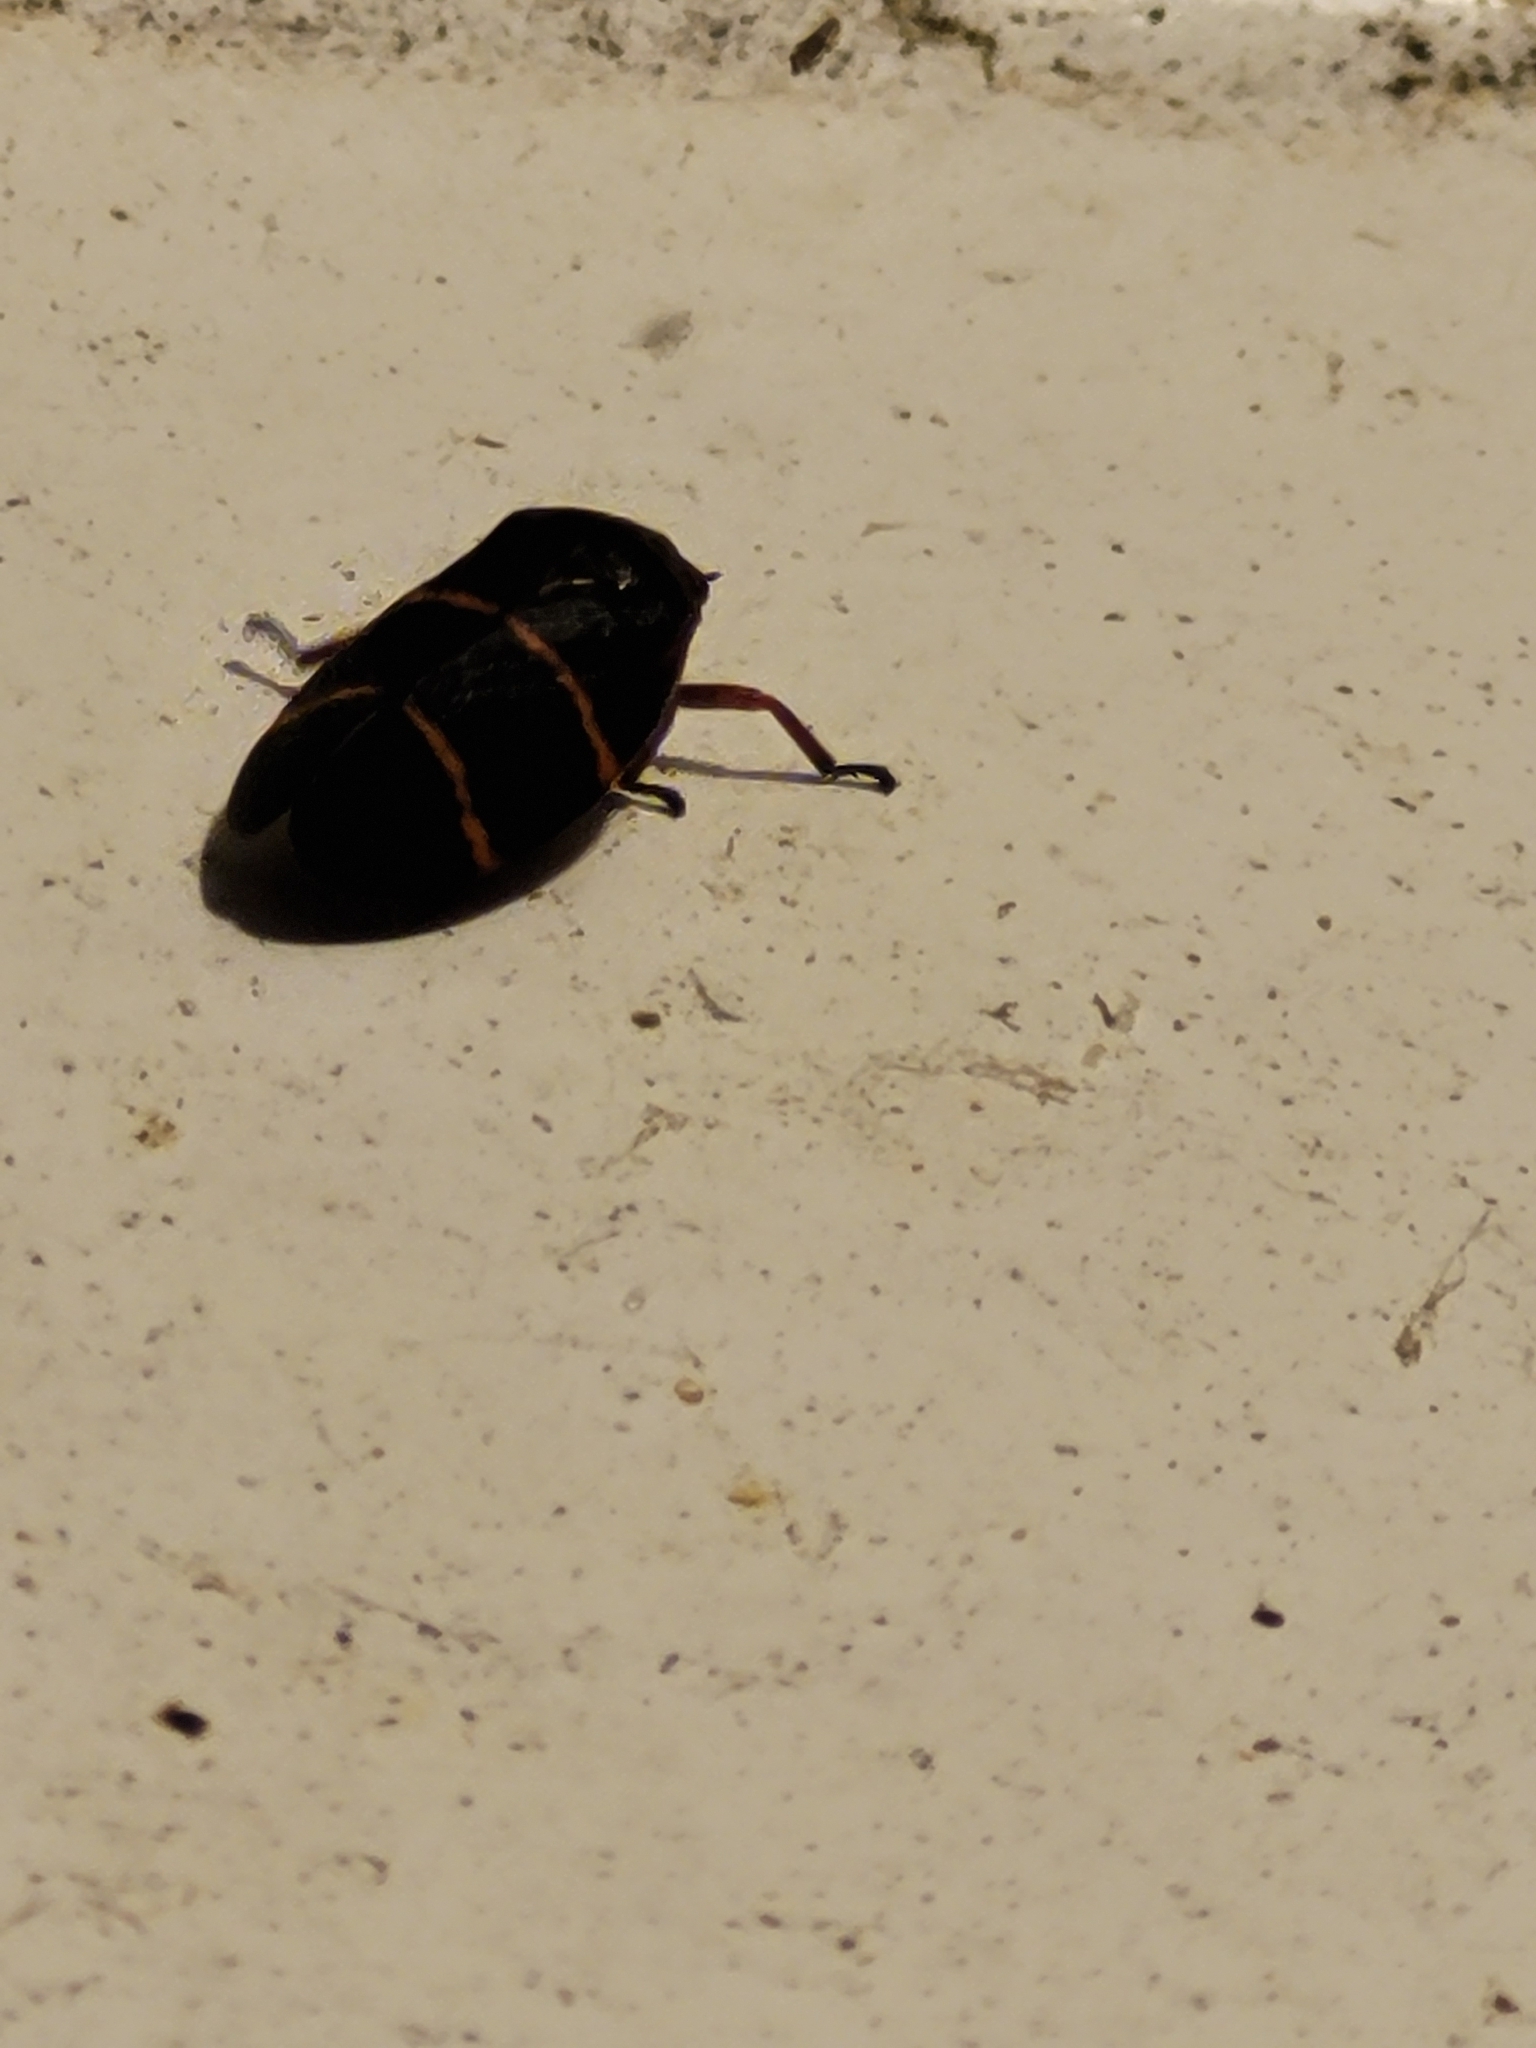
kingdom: Animalia
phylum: Arthropoda
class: Insecta
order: Hemiptera
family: Cercopidae
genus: Prosapia
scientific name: Prosapia bicincta
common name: Twolined spittlebug
